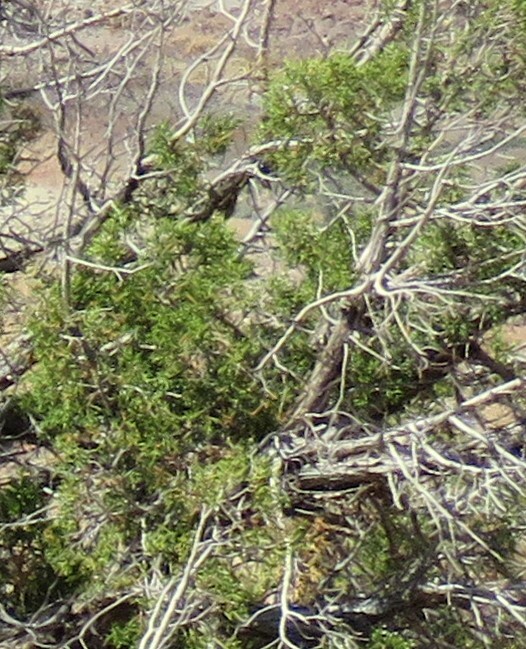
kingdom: Plantae
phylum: Tracheophyta
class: Pinopsida
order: Pinales
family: Cupressaceae
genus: Juniperus
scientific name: Juniperus osteosperma
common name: Utah juniper
